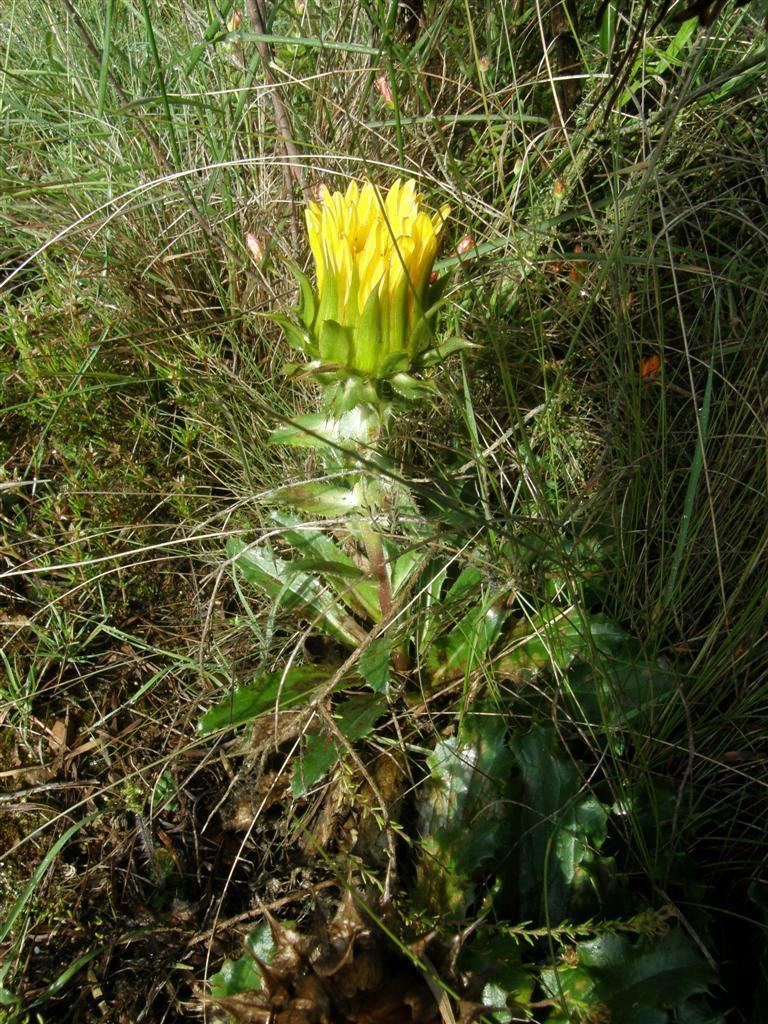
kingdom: Plantae
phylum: Tracheophyta
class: Magnoliopsida
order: Asterales
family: Asteraceae
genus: Berkheya
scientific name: Berkheya armata
